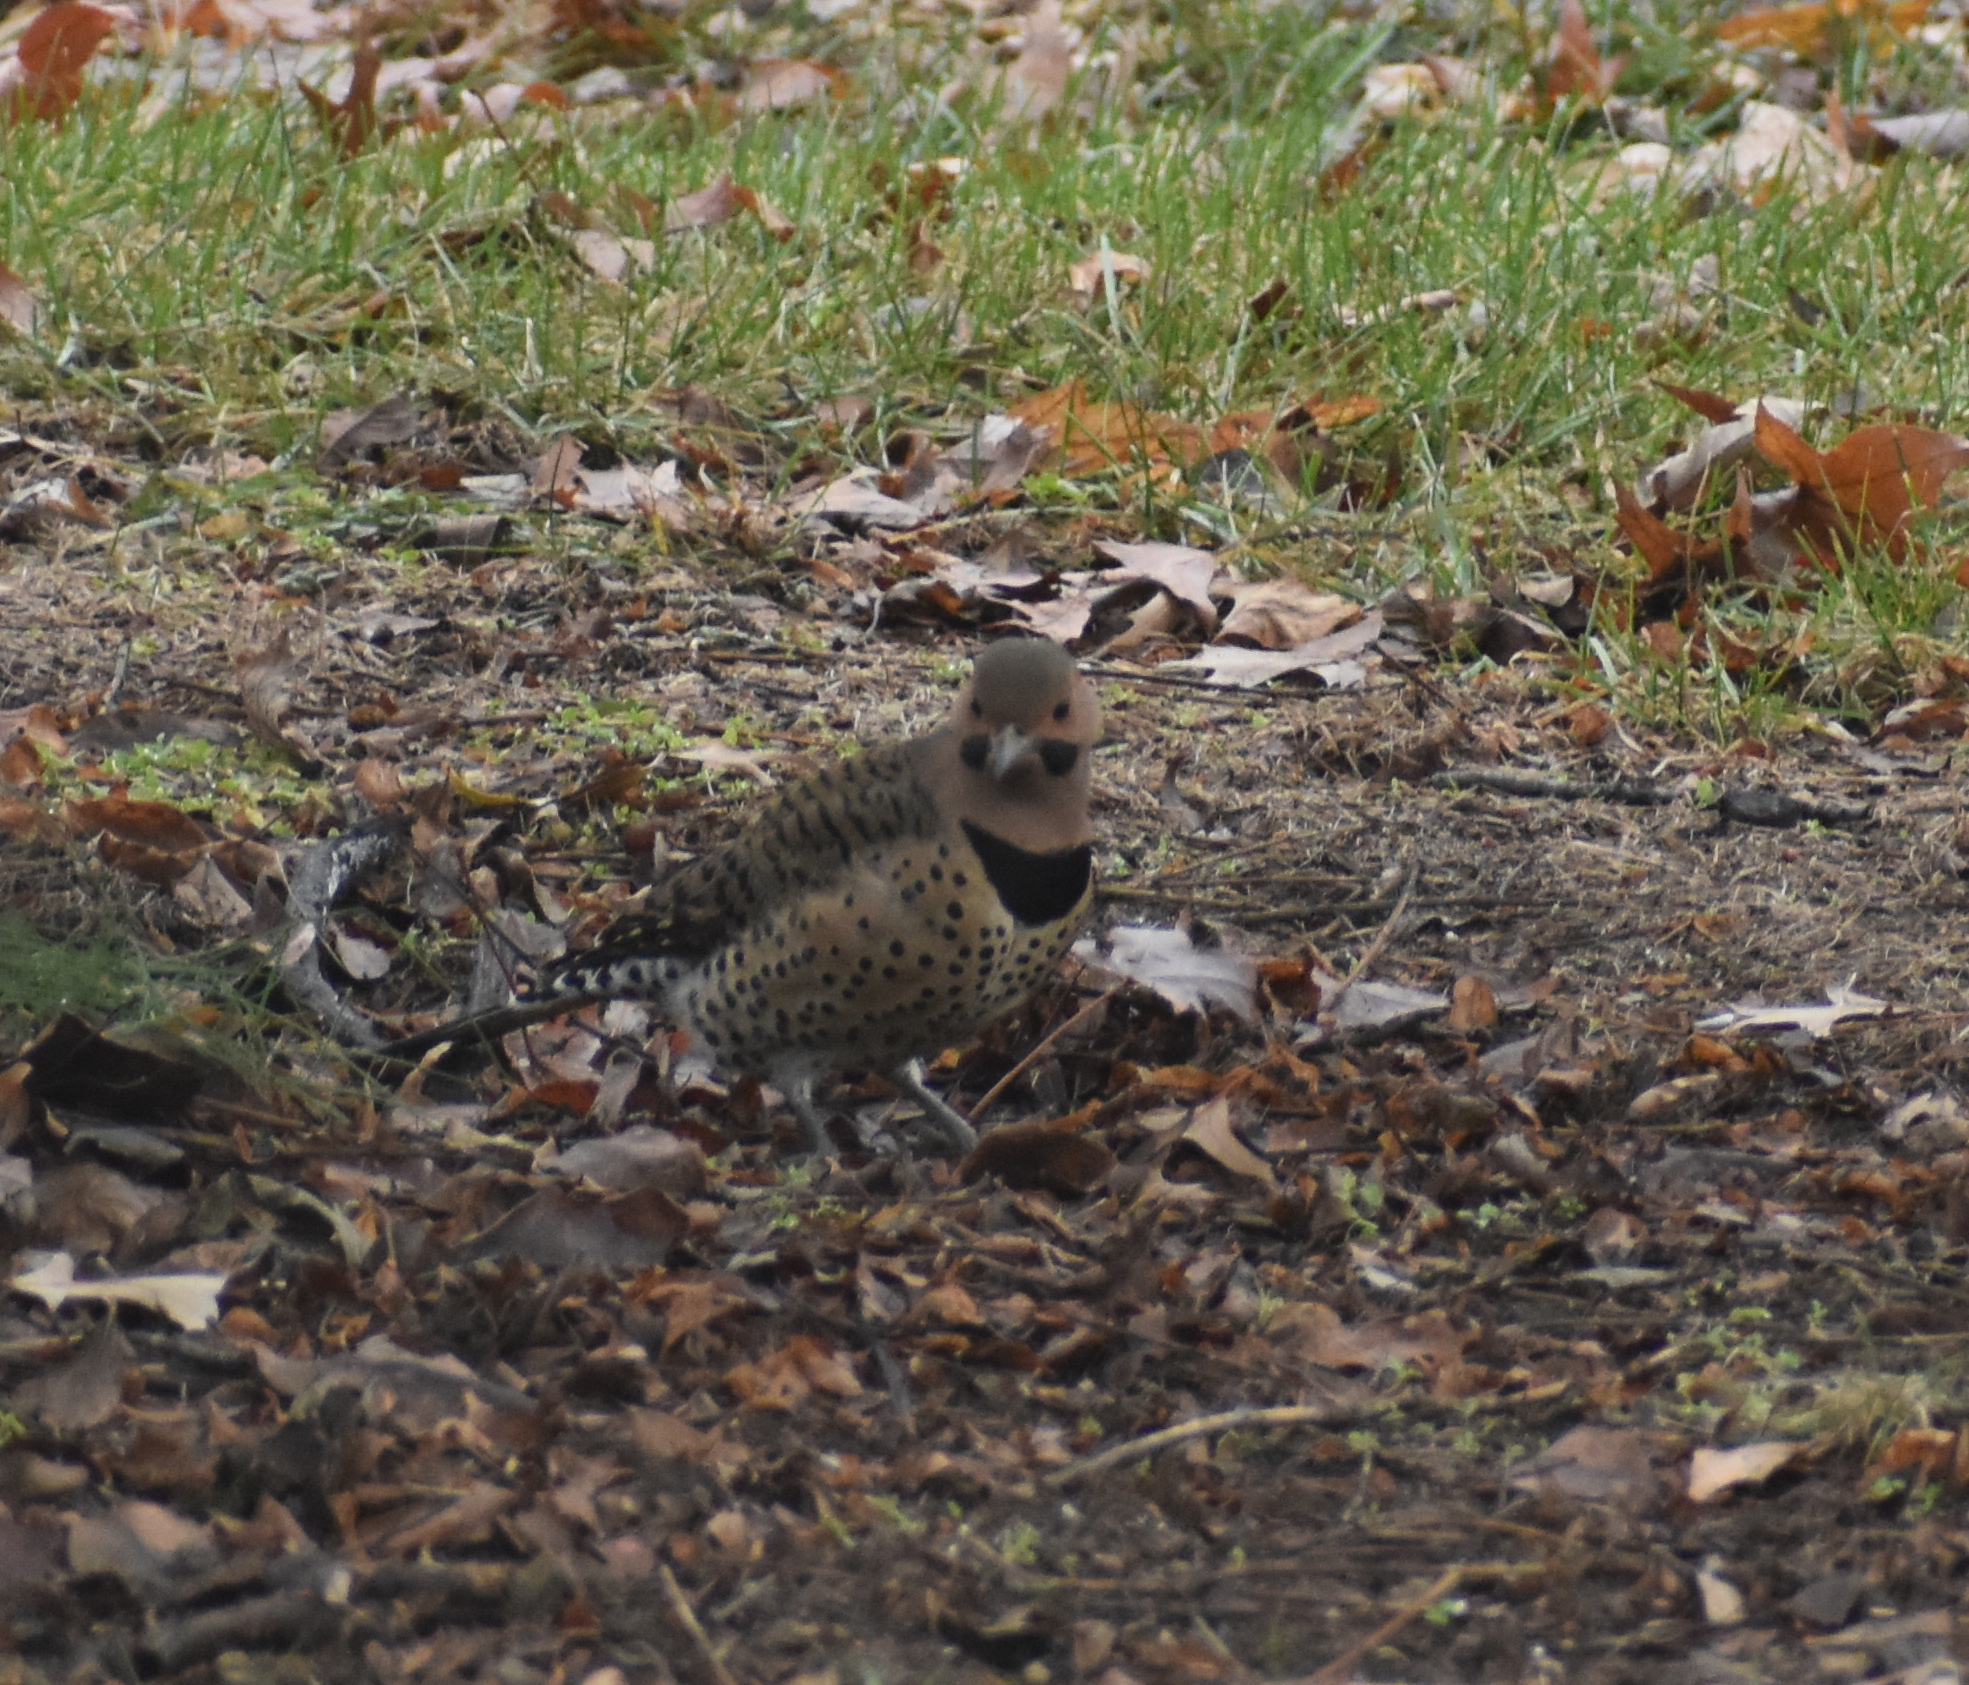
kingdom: Animalia
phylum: Chordata
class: Aves
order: Piciformes
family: Picidae
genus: Colaptes
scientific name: Colaptes auratus
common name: Northern flicker
